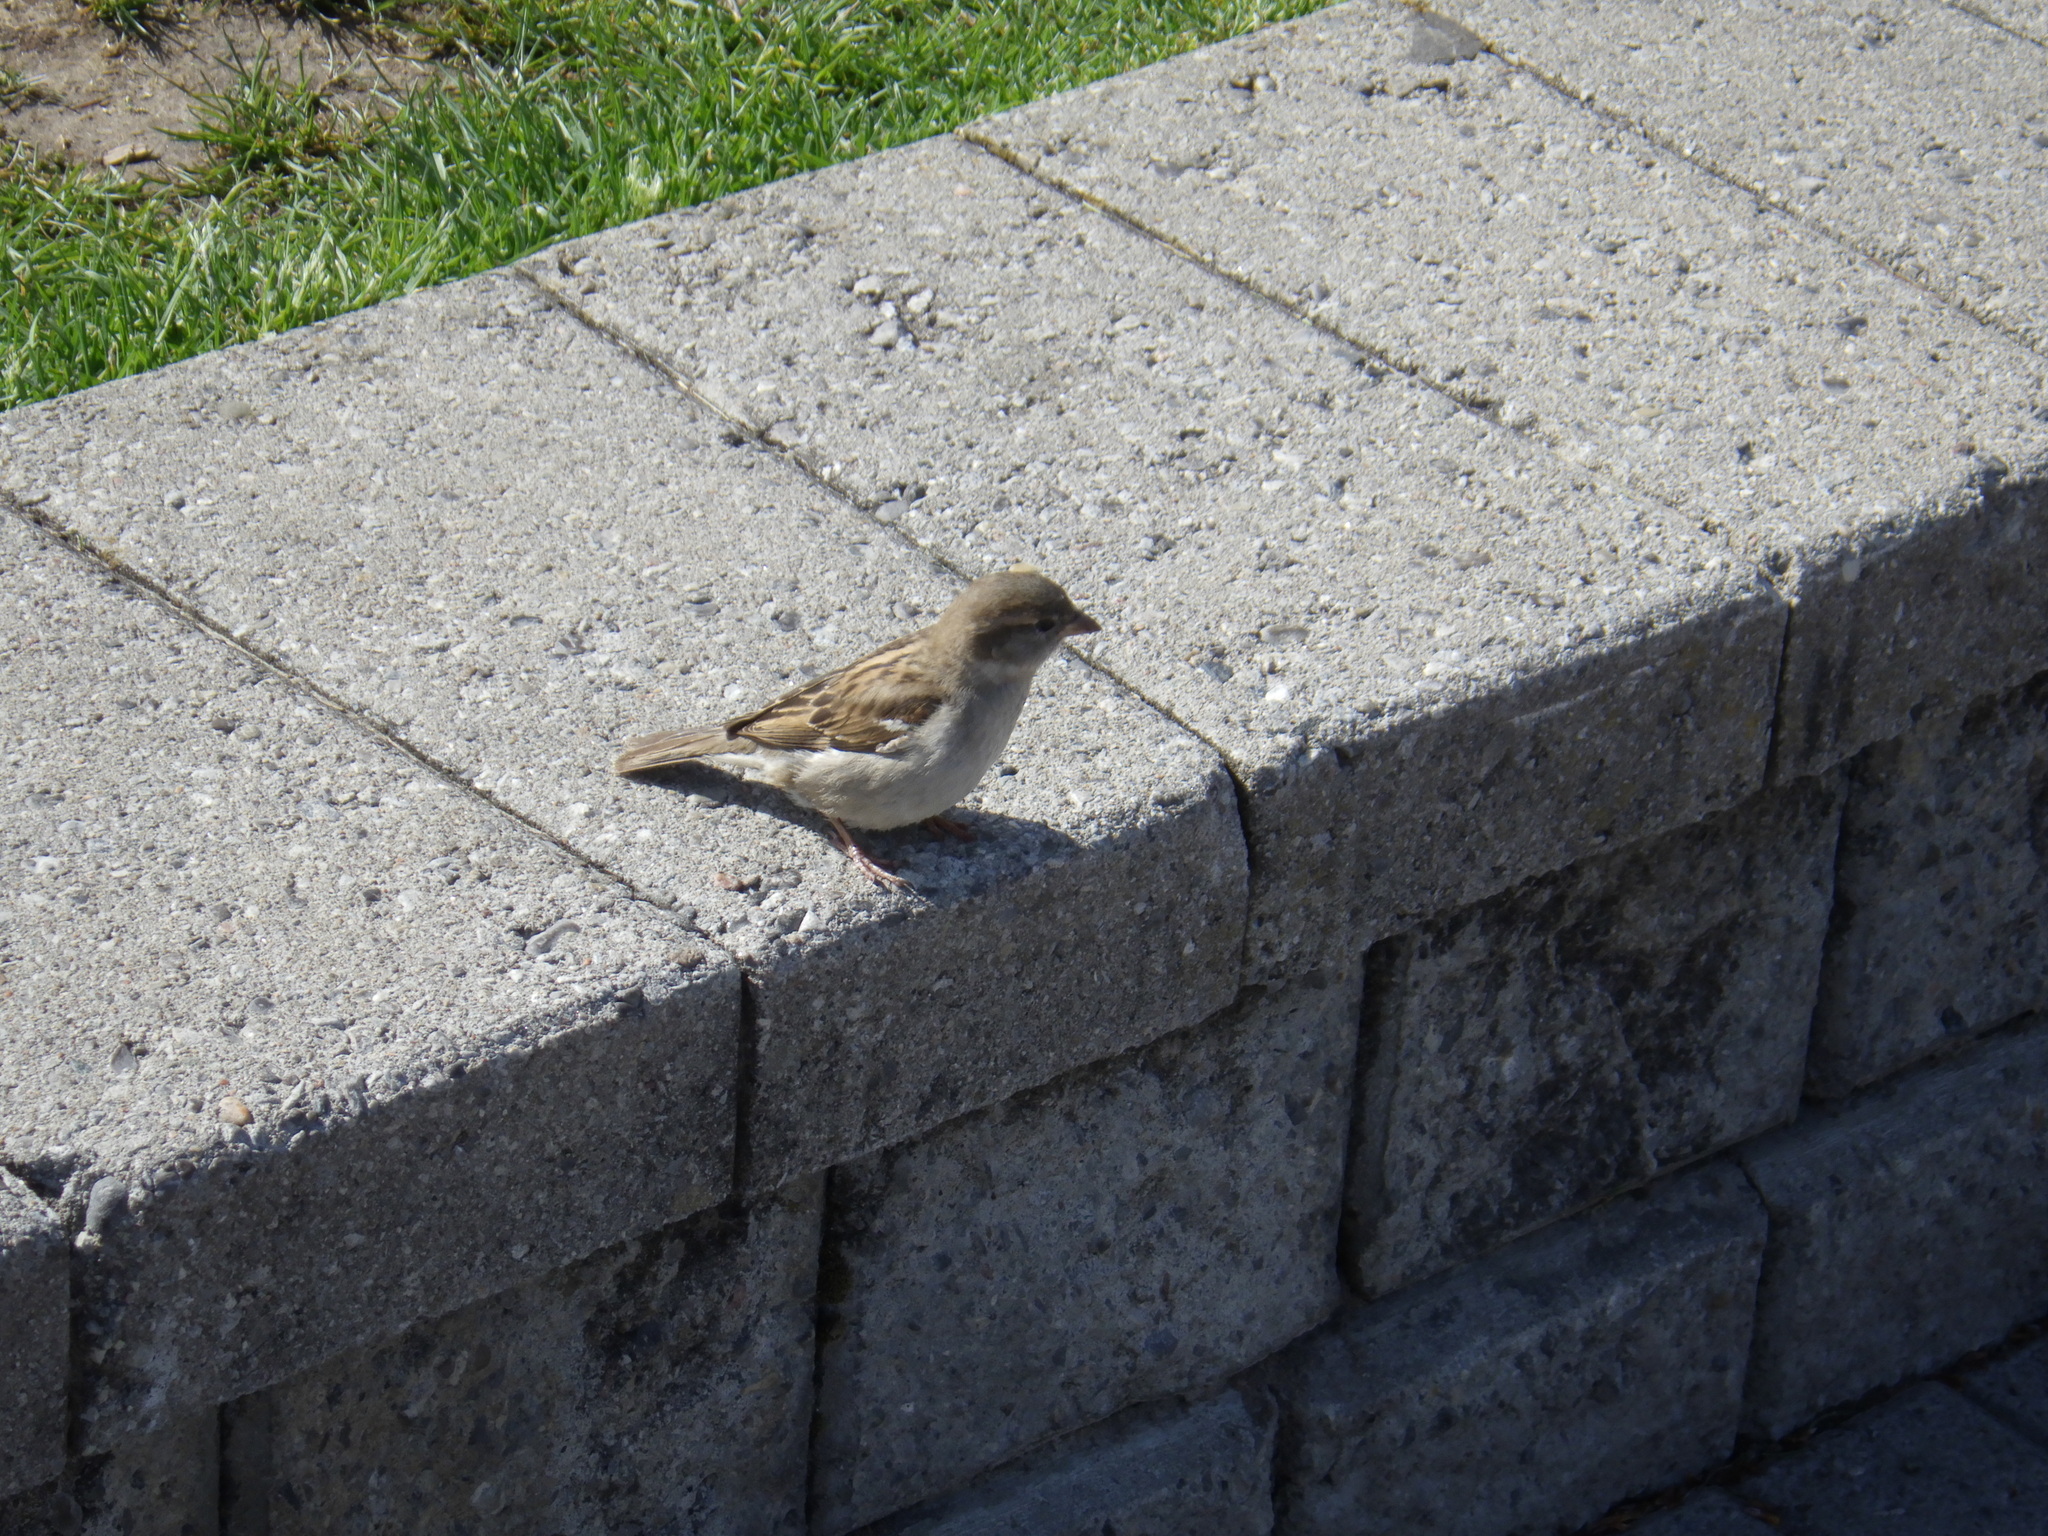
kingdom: Animalia
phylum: Chordata
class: Aves
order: Passeriformes
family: Passeridae
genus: Passer
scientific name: Passer domesticus
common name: House sparrow
